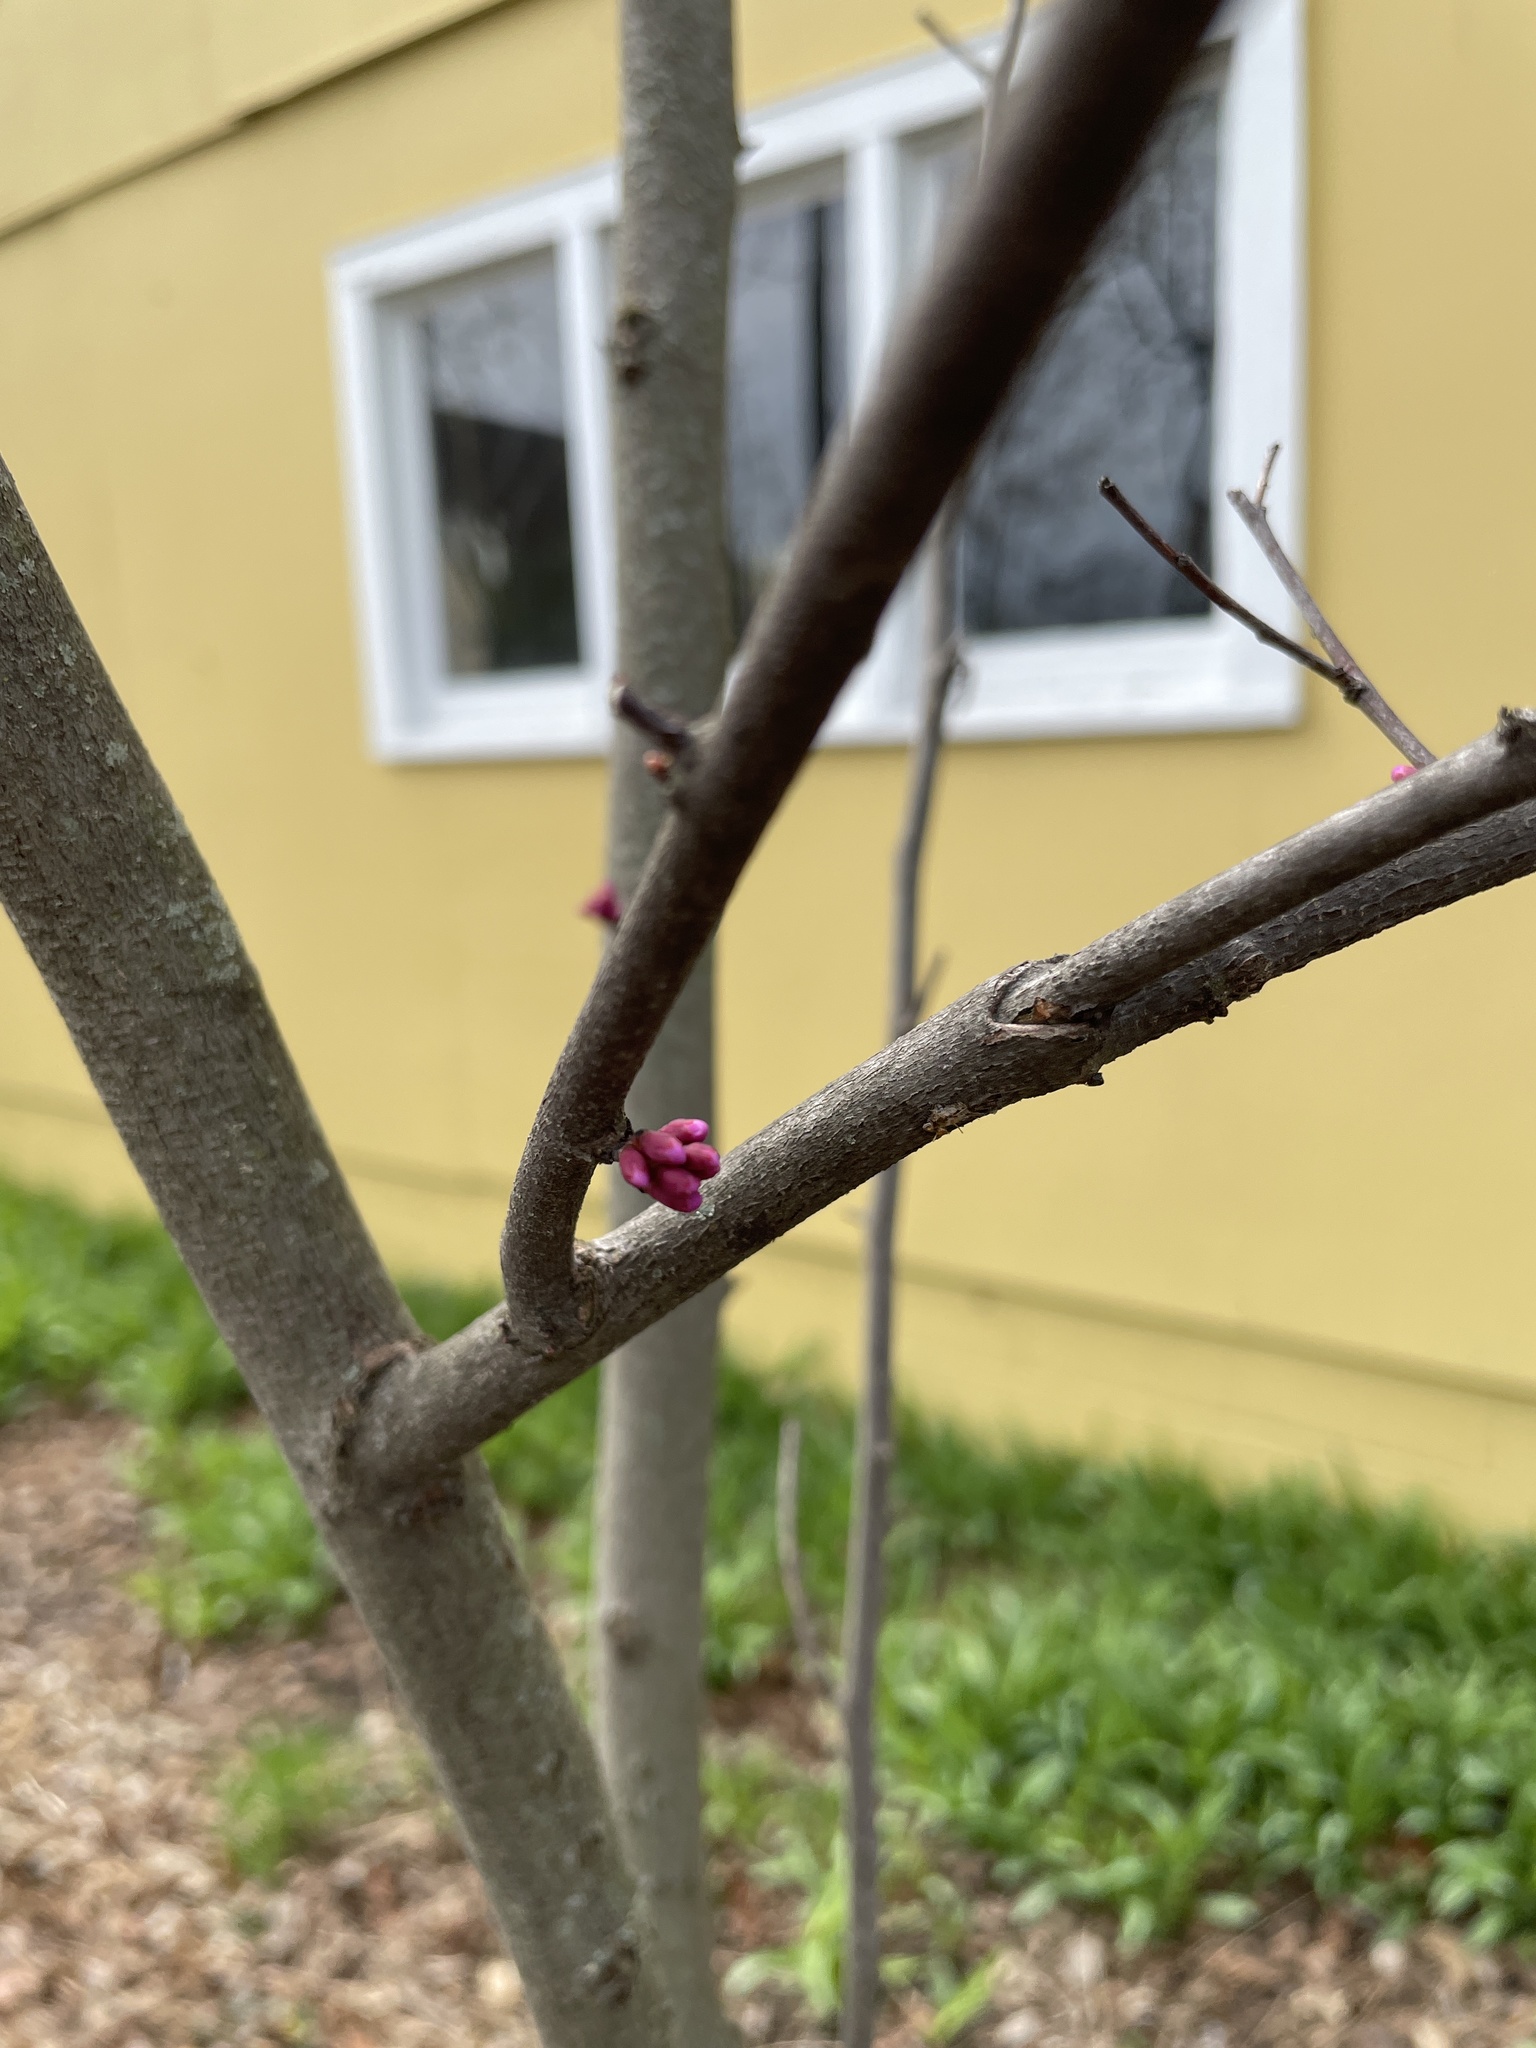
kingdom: Plantae
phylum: Tracheophyta
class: Magnoliopsida
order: Fabales
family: Fabaceae
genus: Cercis
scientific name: Cercis canadensis
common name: Eastern redbud
